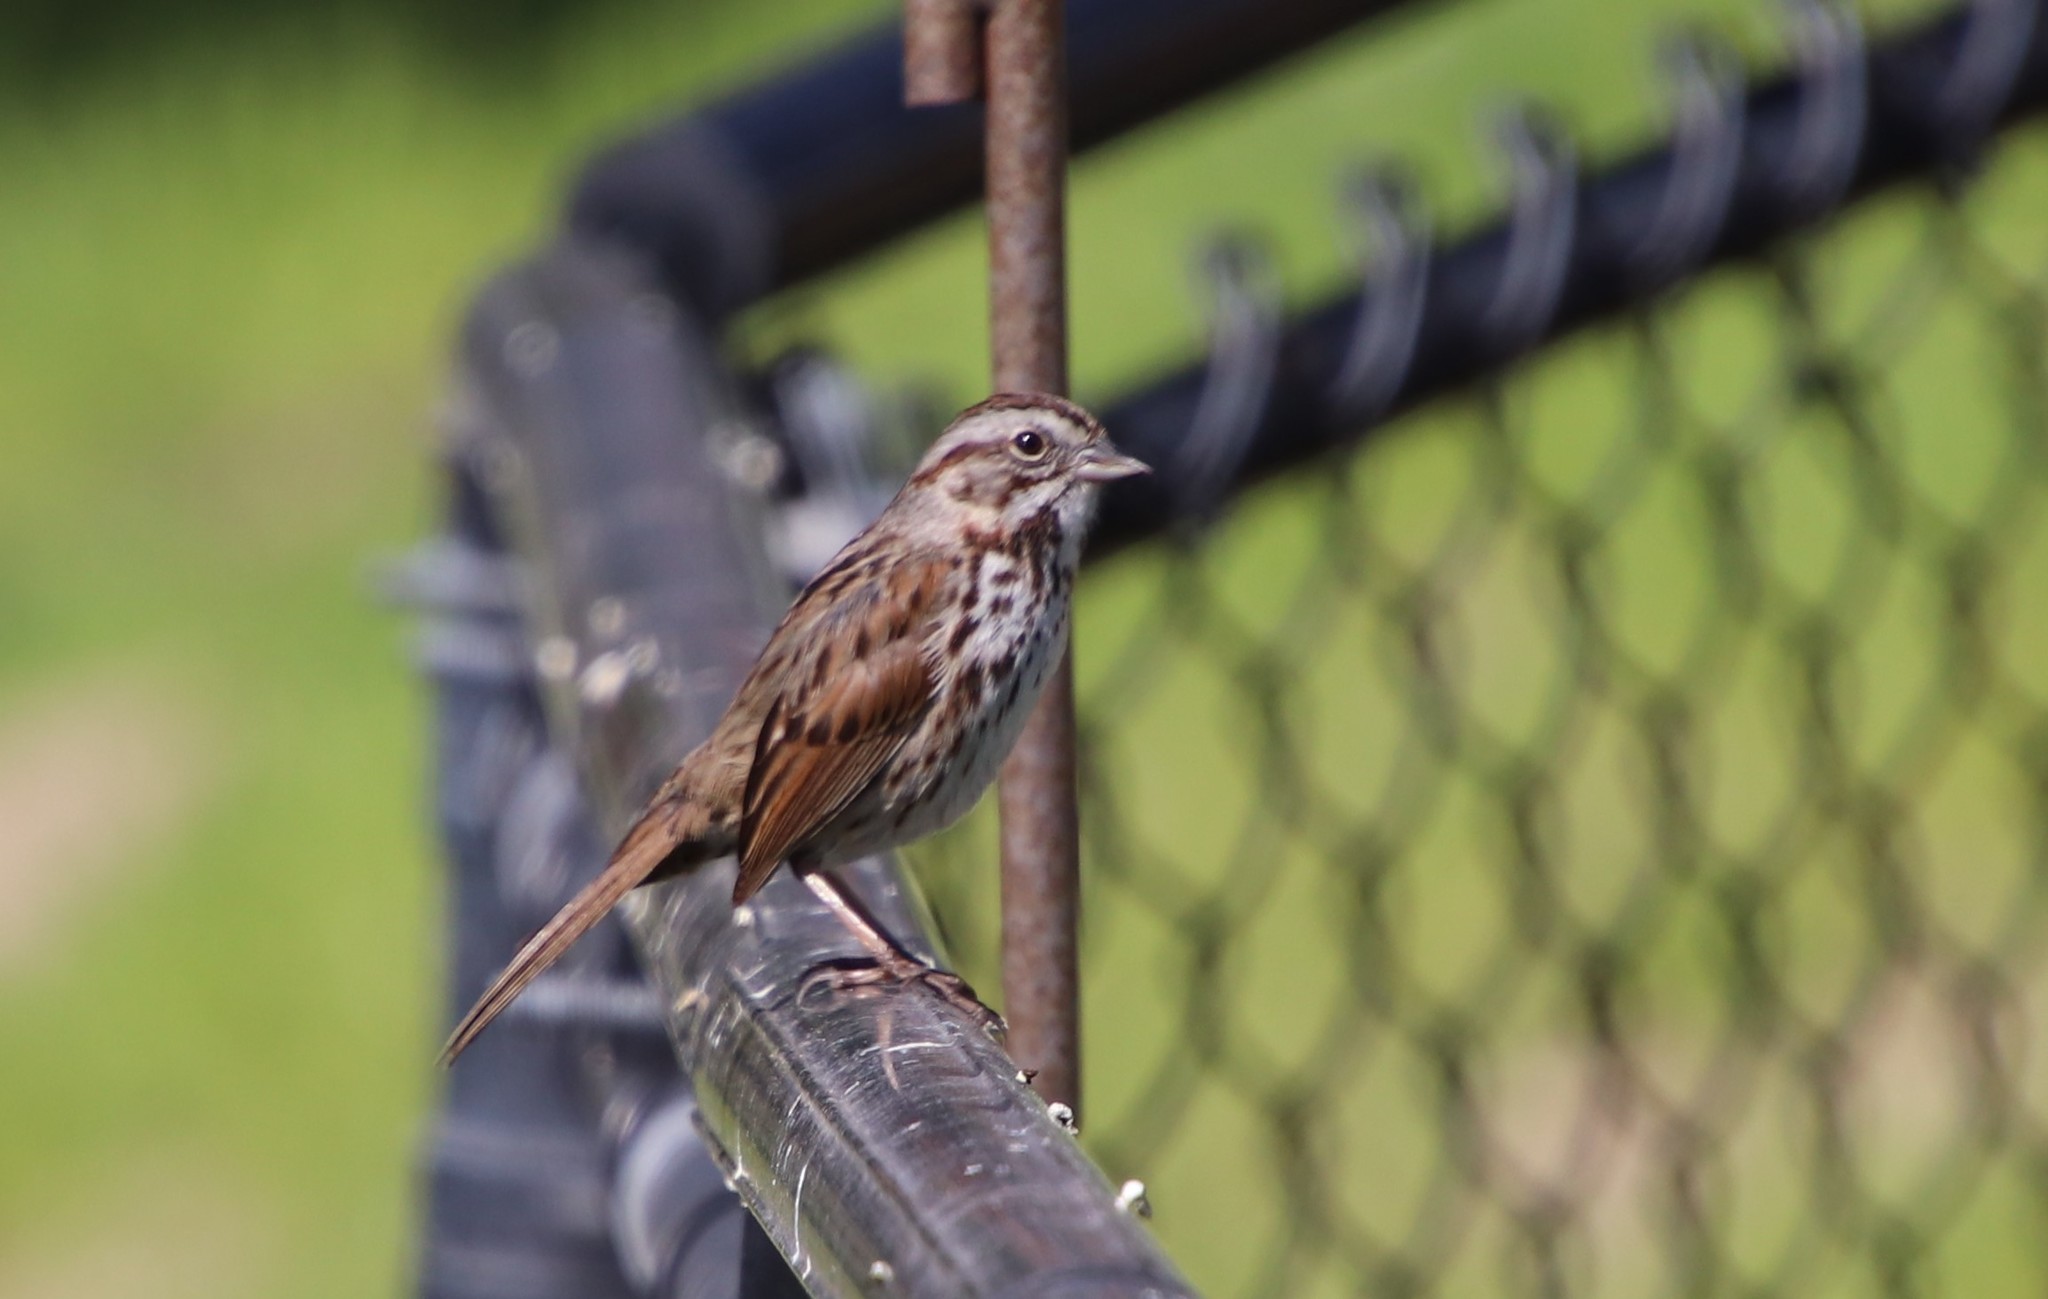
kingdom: Animalia
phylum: Chordata
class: Aves
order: Passeriformes
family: Passerellidae
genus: Melospiza
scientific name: Melospiza melodia
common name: Song sparrow
